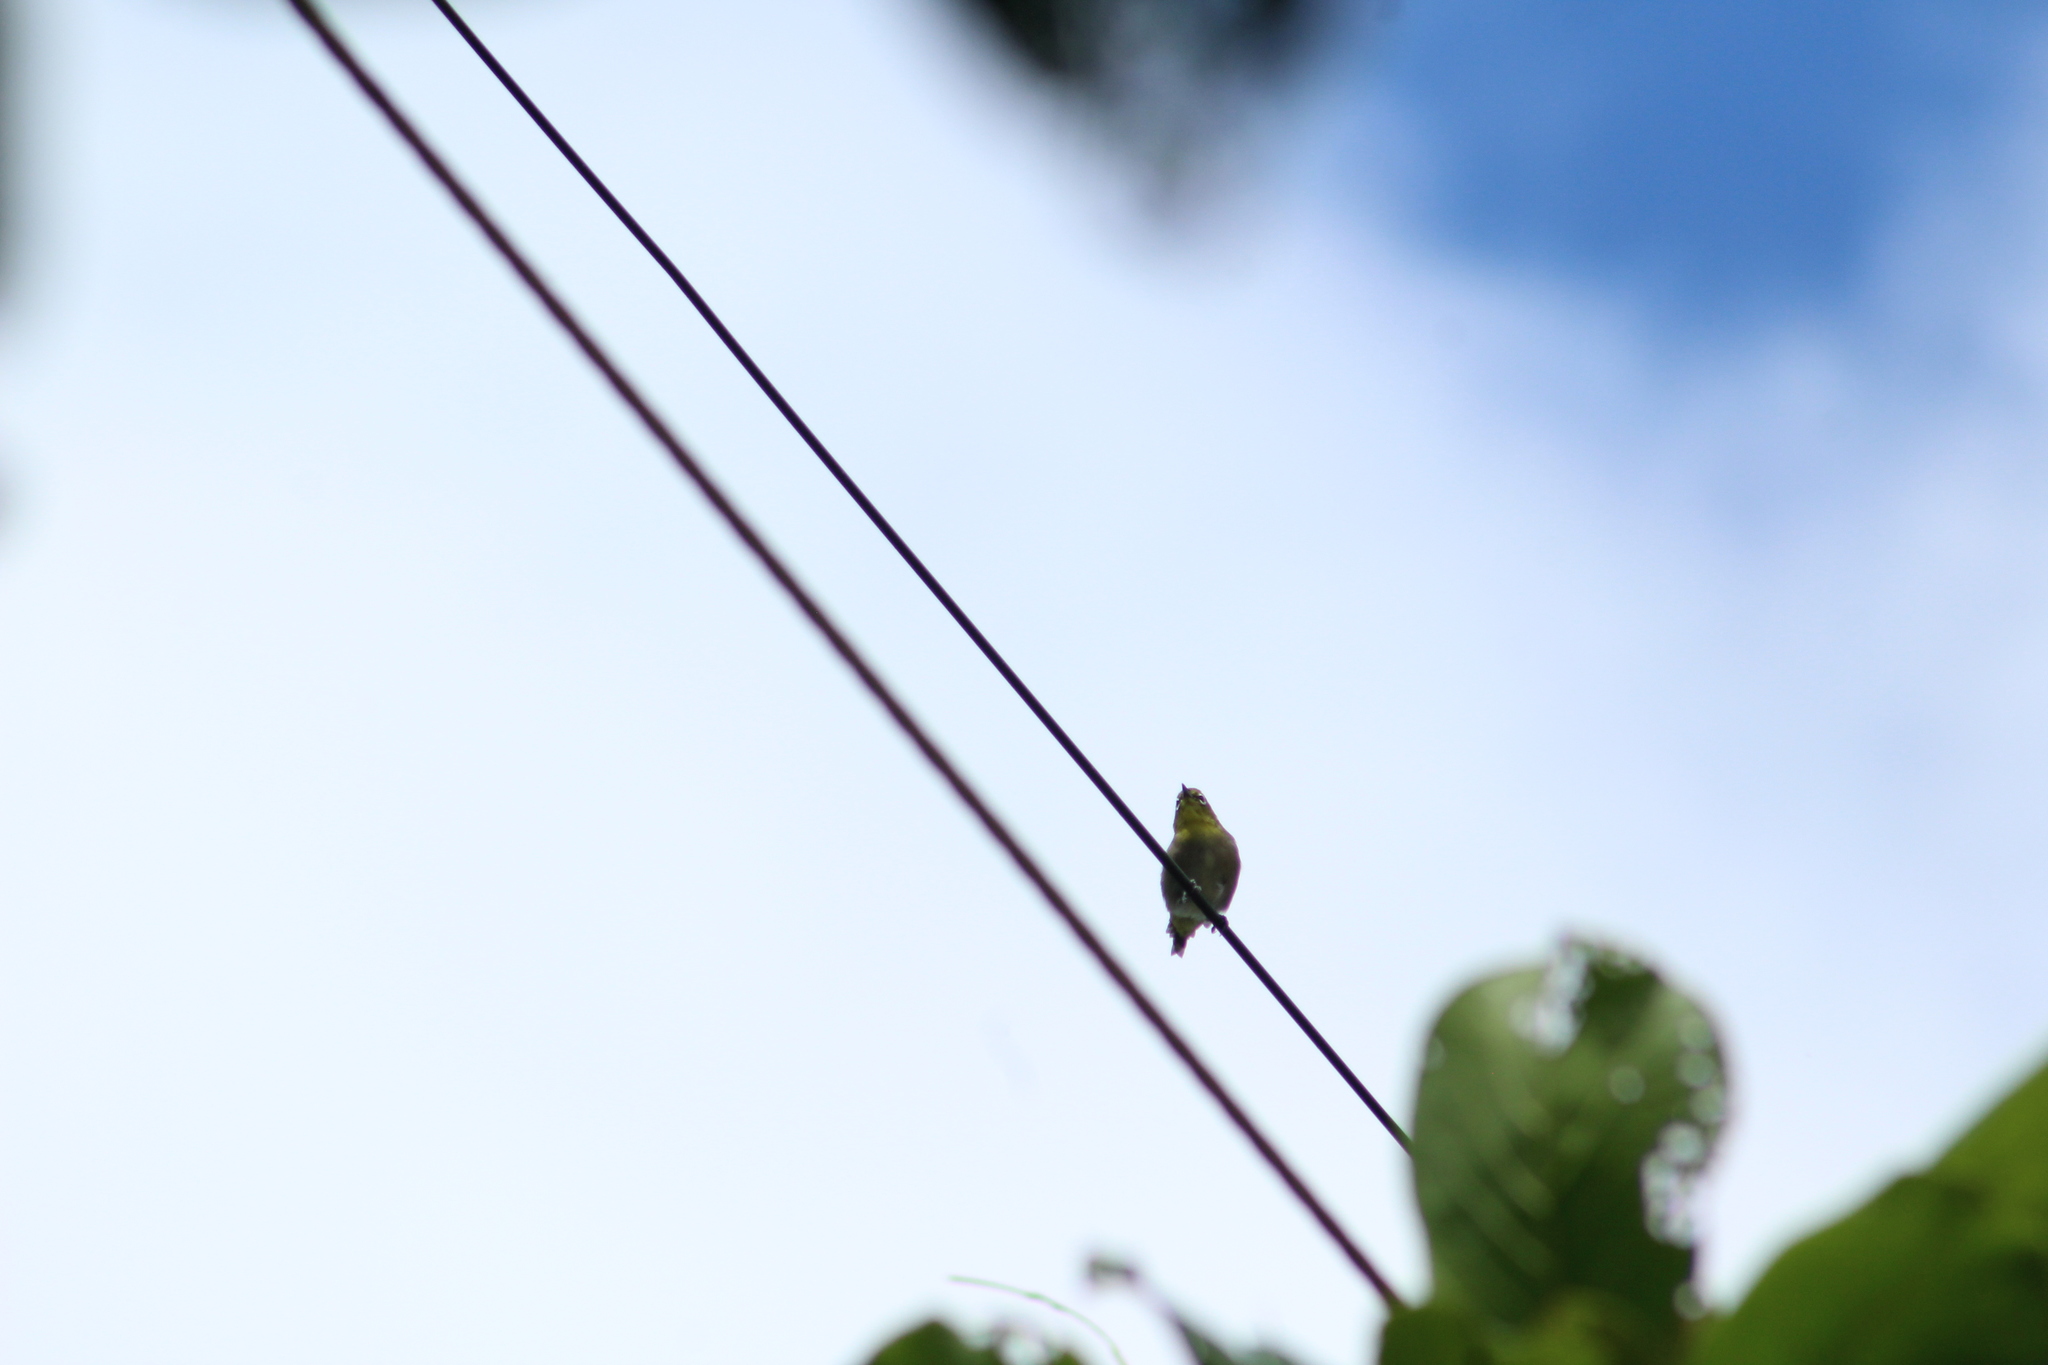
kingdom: Animalia
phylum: Chordata
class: Aves
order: Passeriformes
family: Zosteropidae
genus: Zosterops
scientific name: Zosterops japonicus
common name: Japanese white-eye
